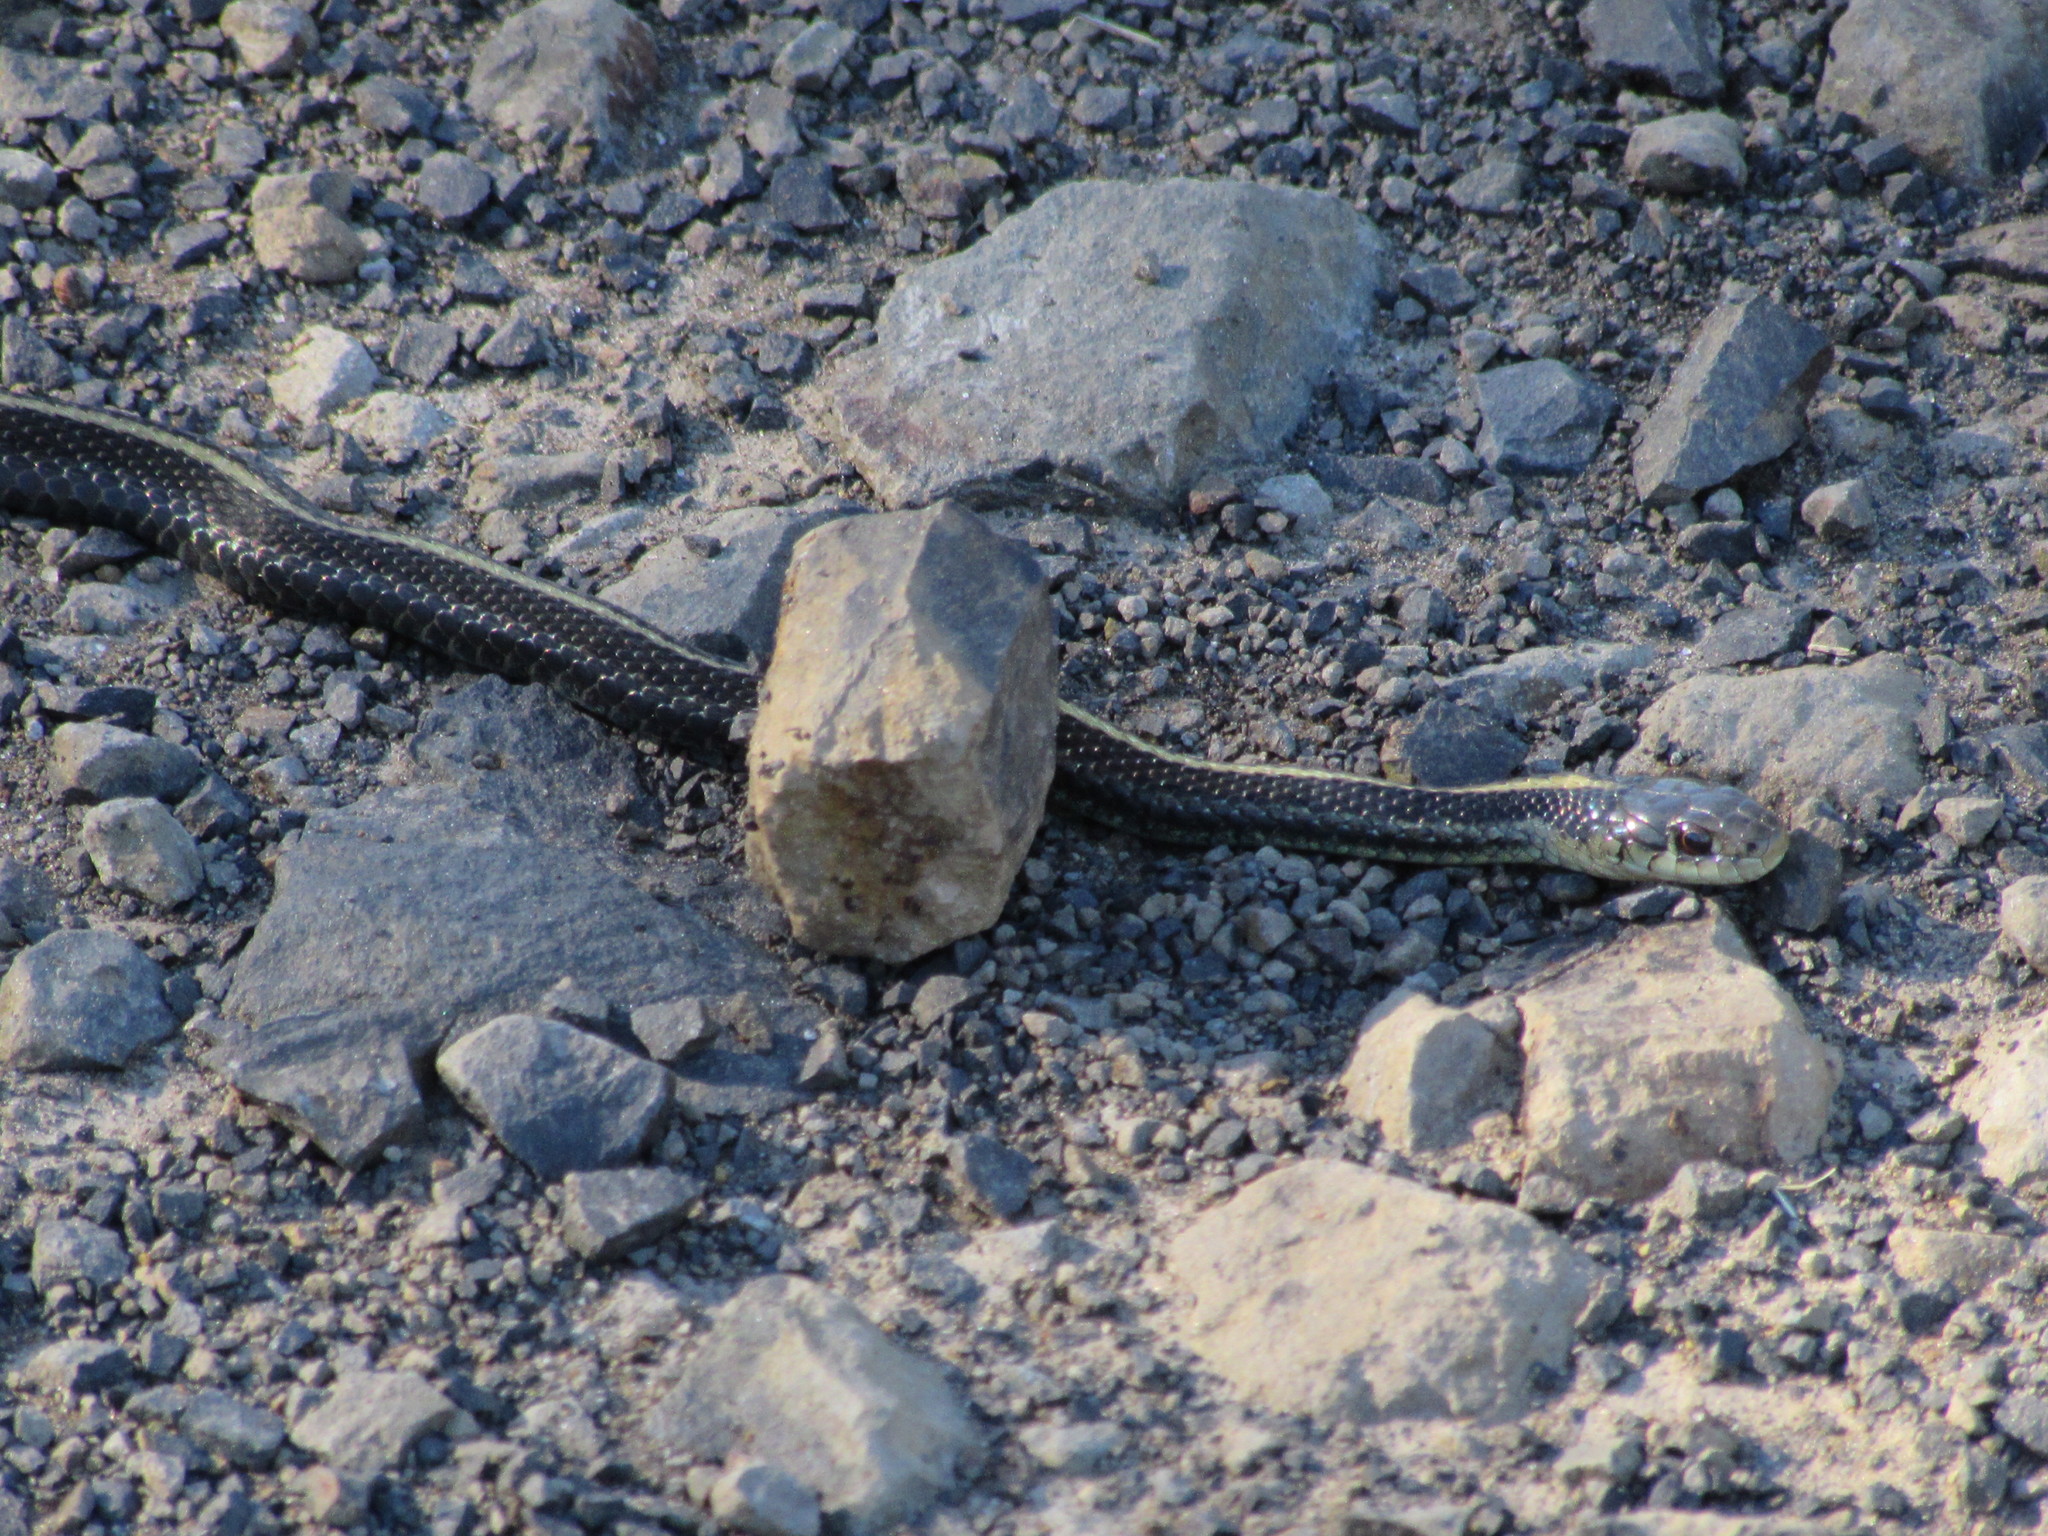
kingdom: Animalia
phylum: Chordata
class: Squamata
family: Colubridae
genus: Thamnophis
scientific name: Thamnophis ordinoides
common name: Northwestern garter snake
